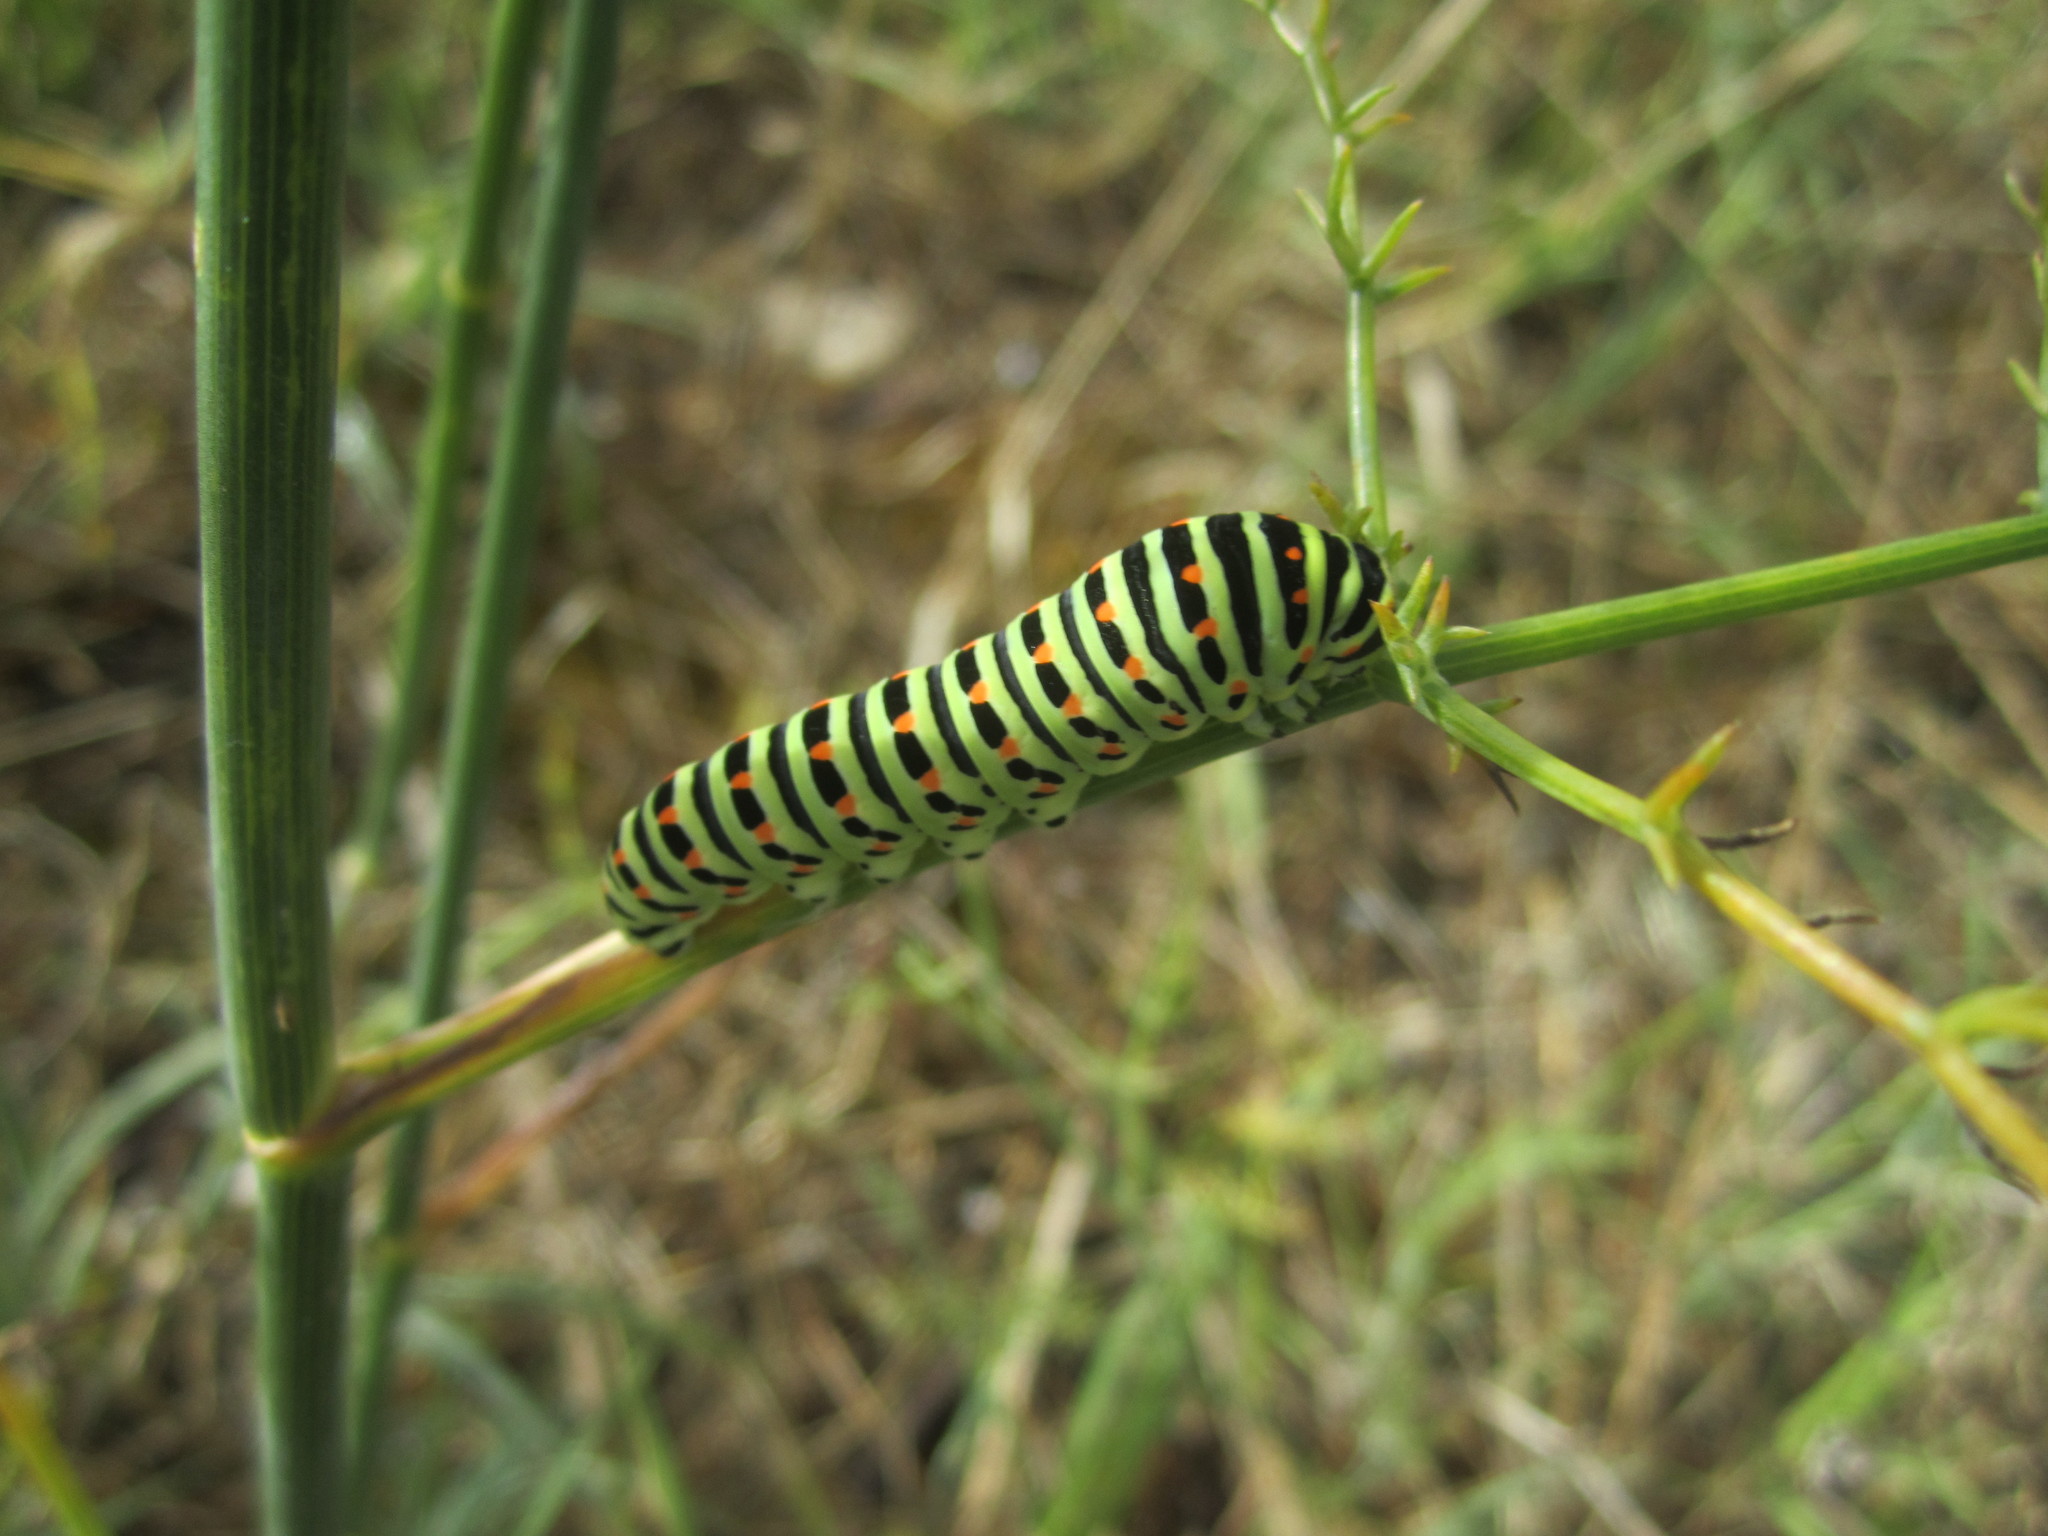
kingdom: Animalia
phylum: Arthropoda
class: Insecta
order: Lepidoptera
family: Papilionidae
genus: Papilio
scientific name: Papilio machaon
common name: Swallowtail
